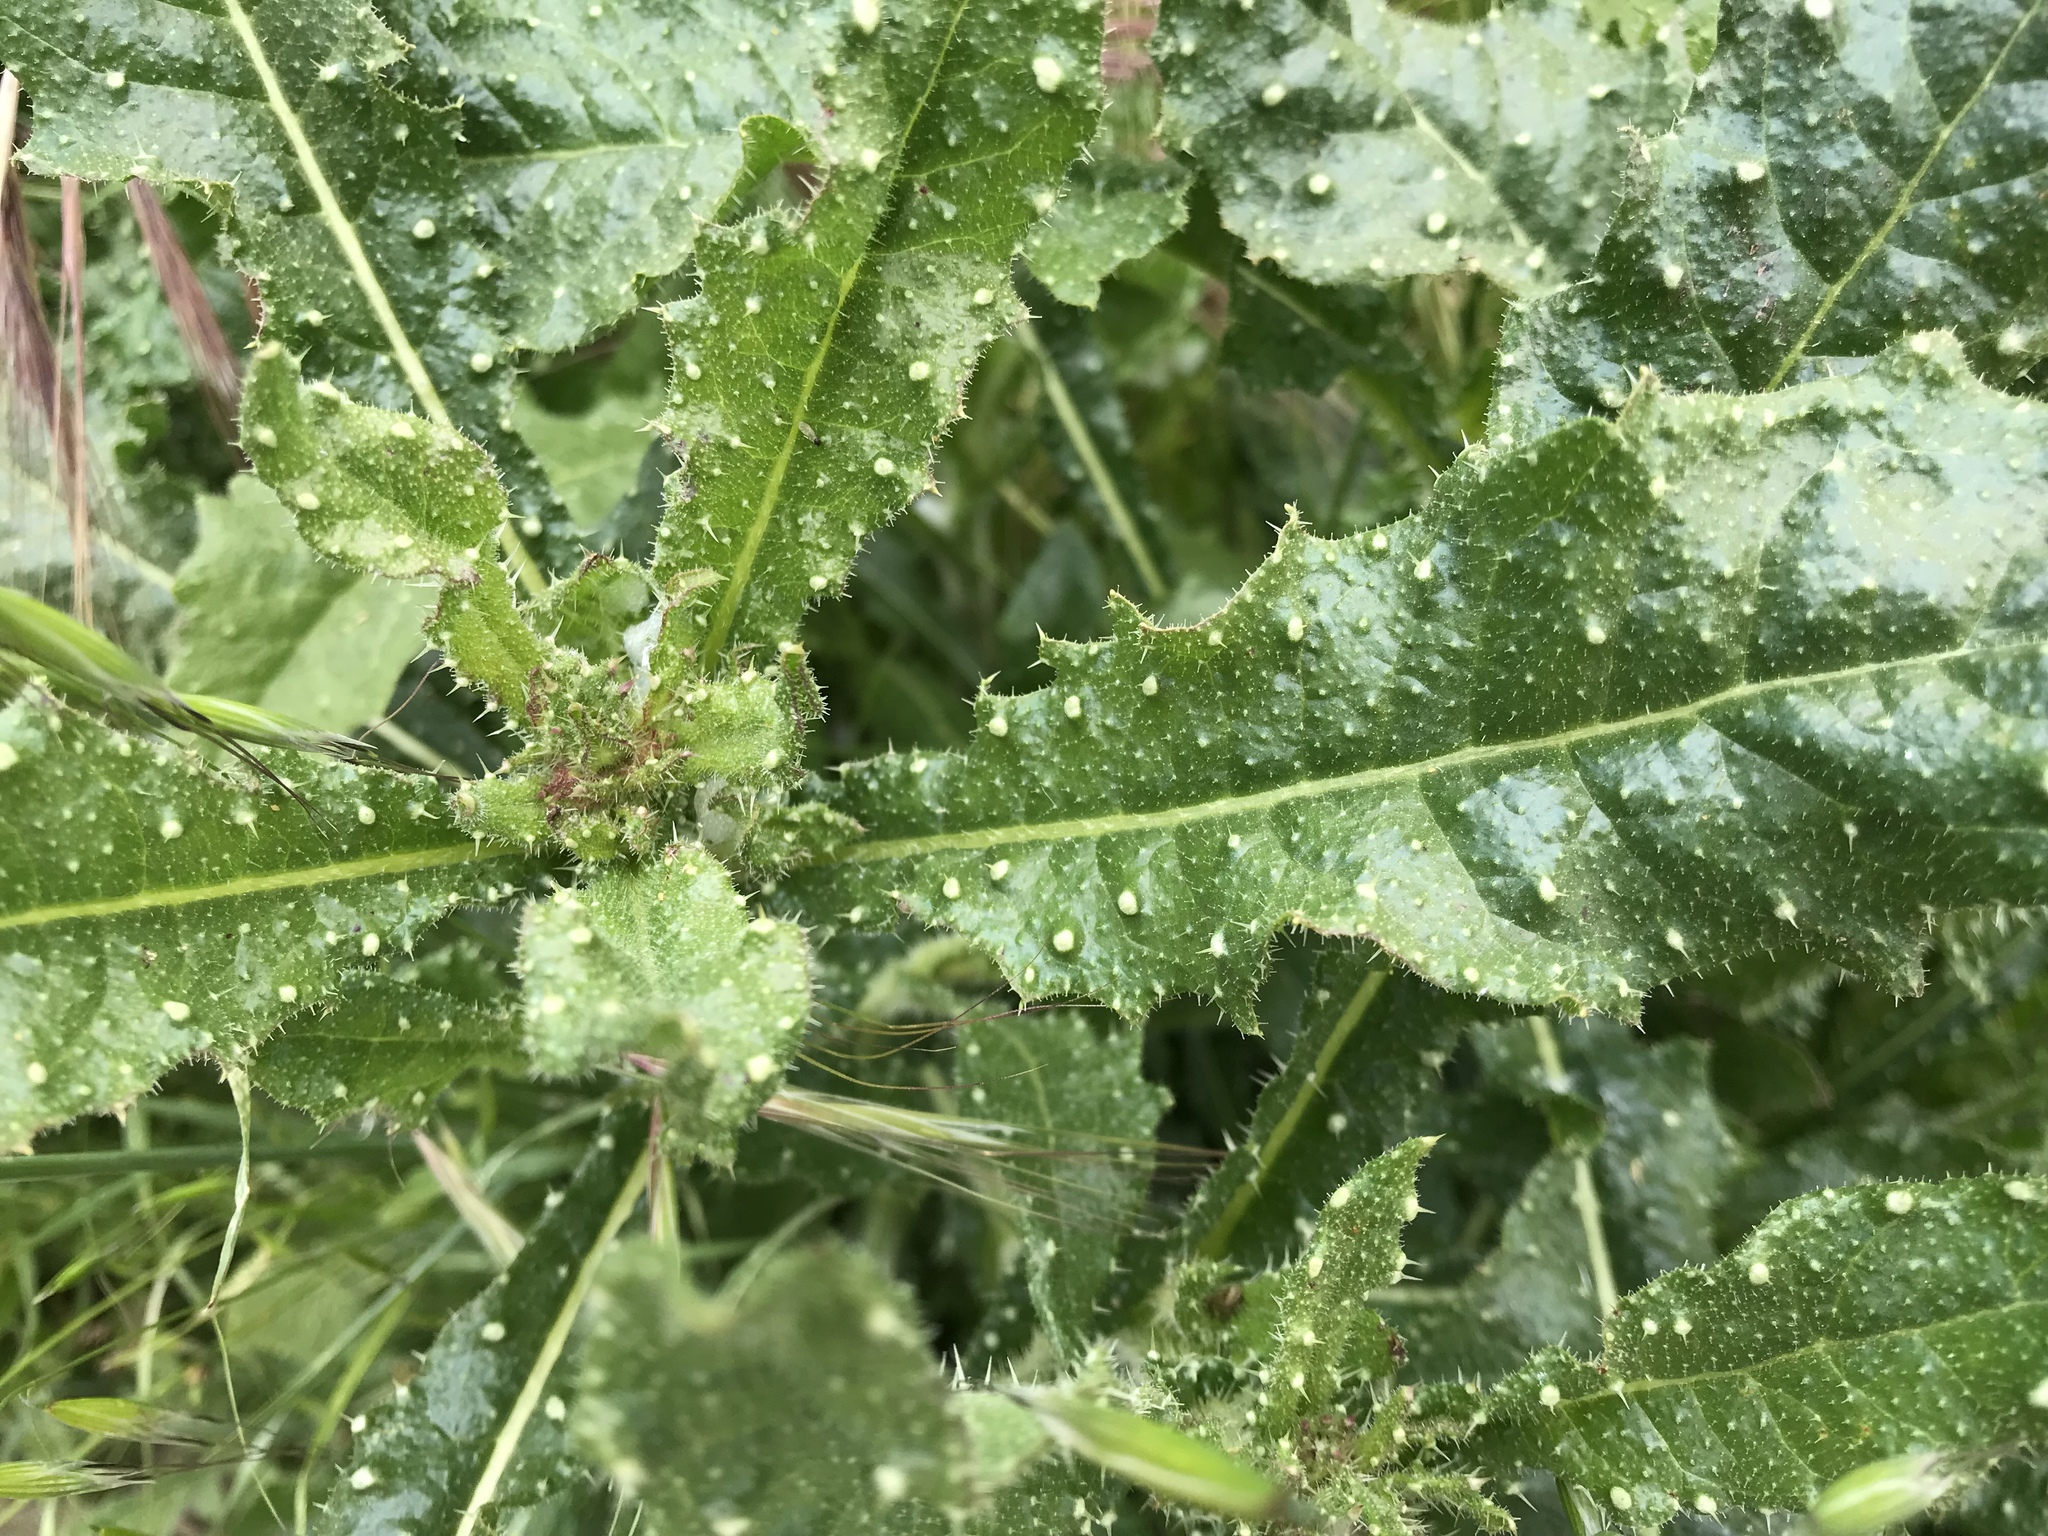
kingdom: Plantae
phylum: Tracheophyta
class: Magnoliopsida
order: Asterales
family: Asteraceae
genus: Helminthotheca
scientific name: Helminthotheca echioides
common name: Ox-tongue
